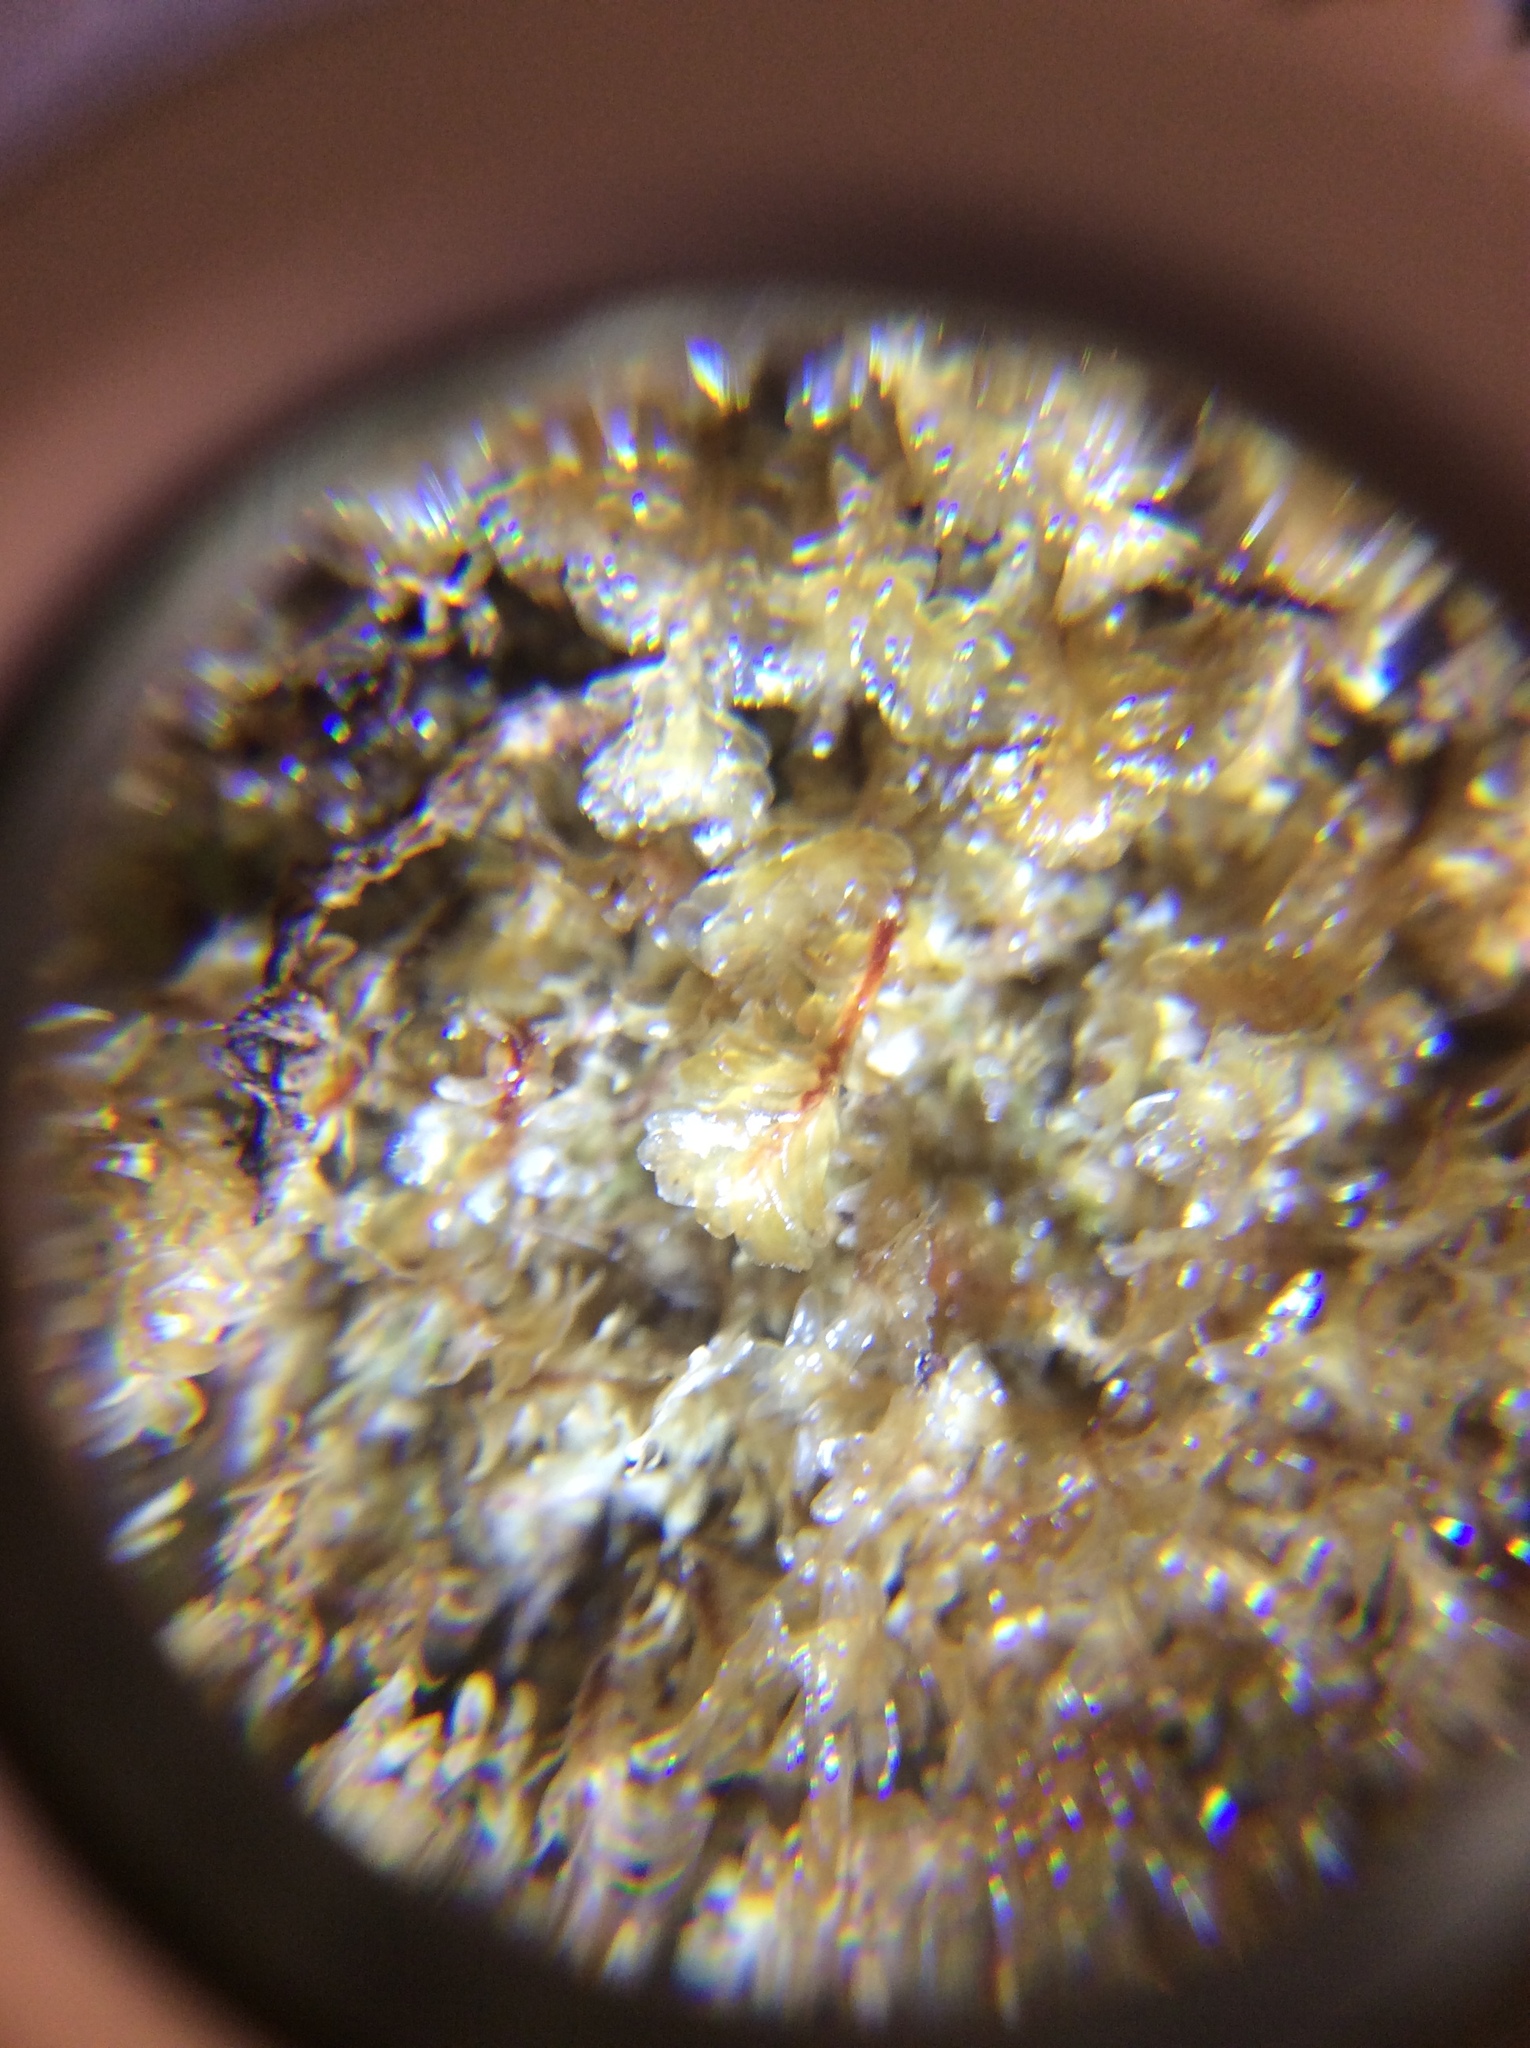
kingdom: Plantae
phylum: Marchantiophyta
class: Jungermanniopsida
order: Jungermanniales
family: Scapaniaceae
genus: Diplophyllum
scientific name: Diplophyllum albicans
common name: White earwort
